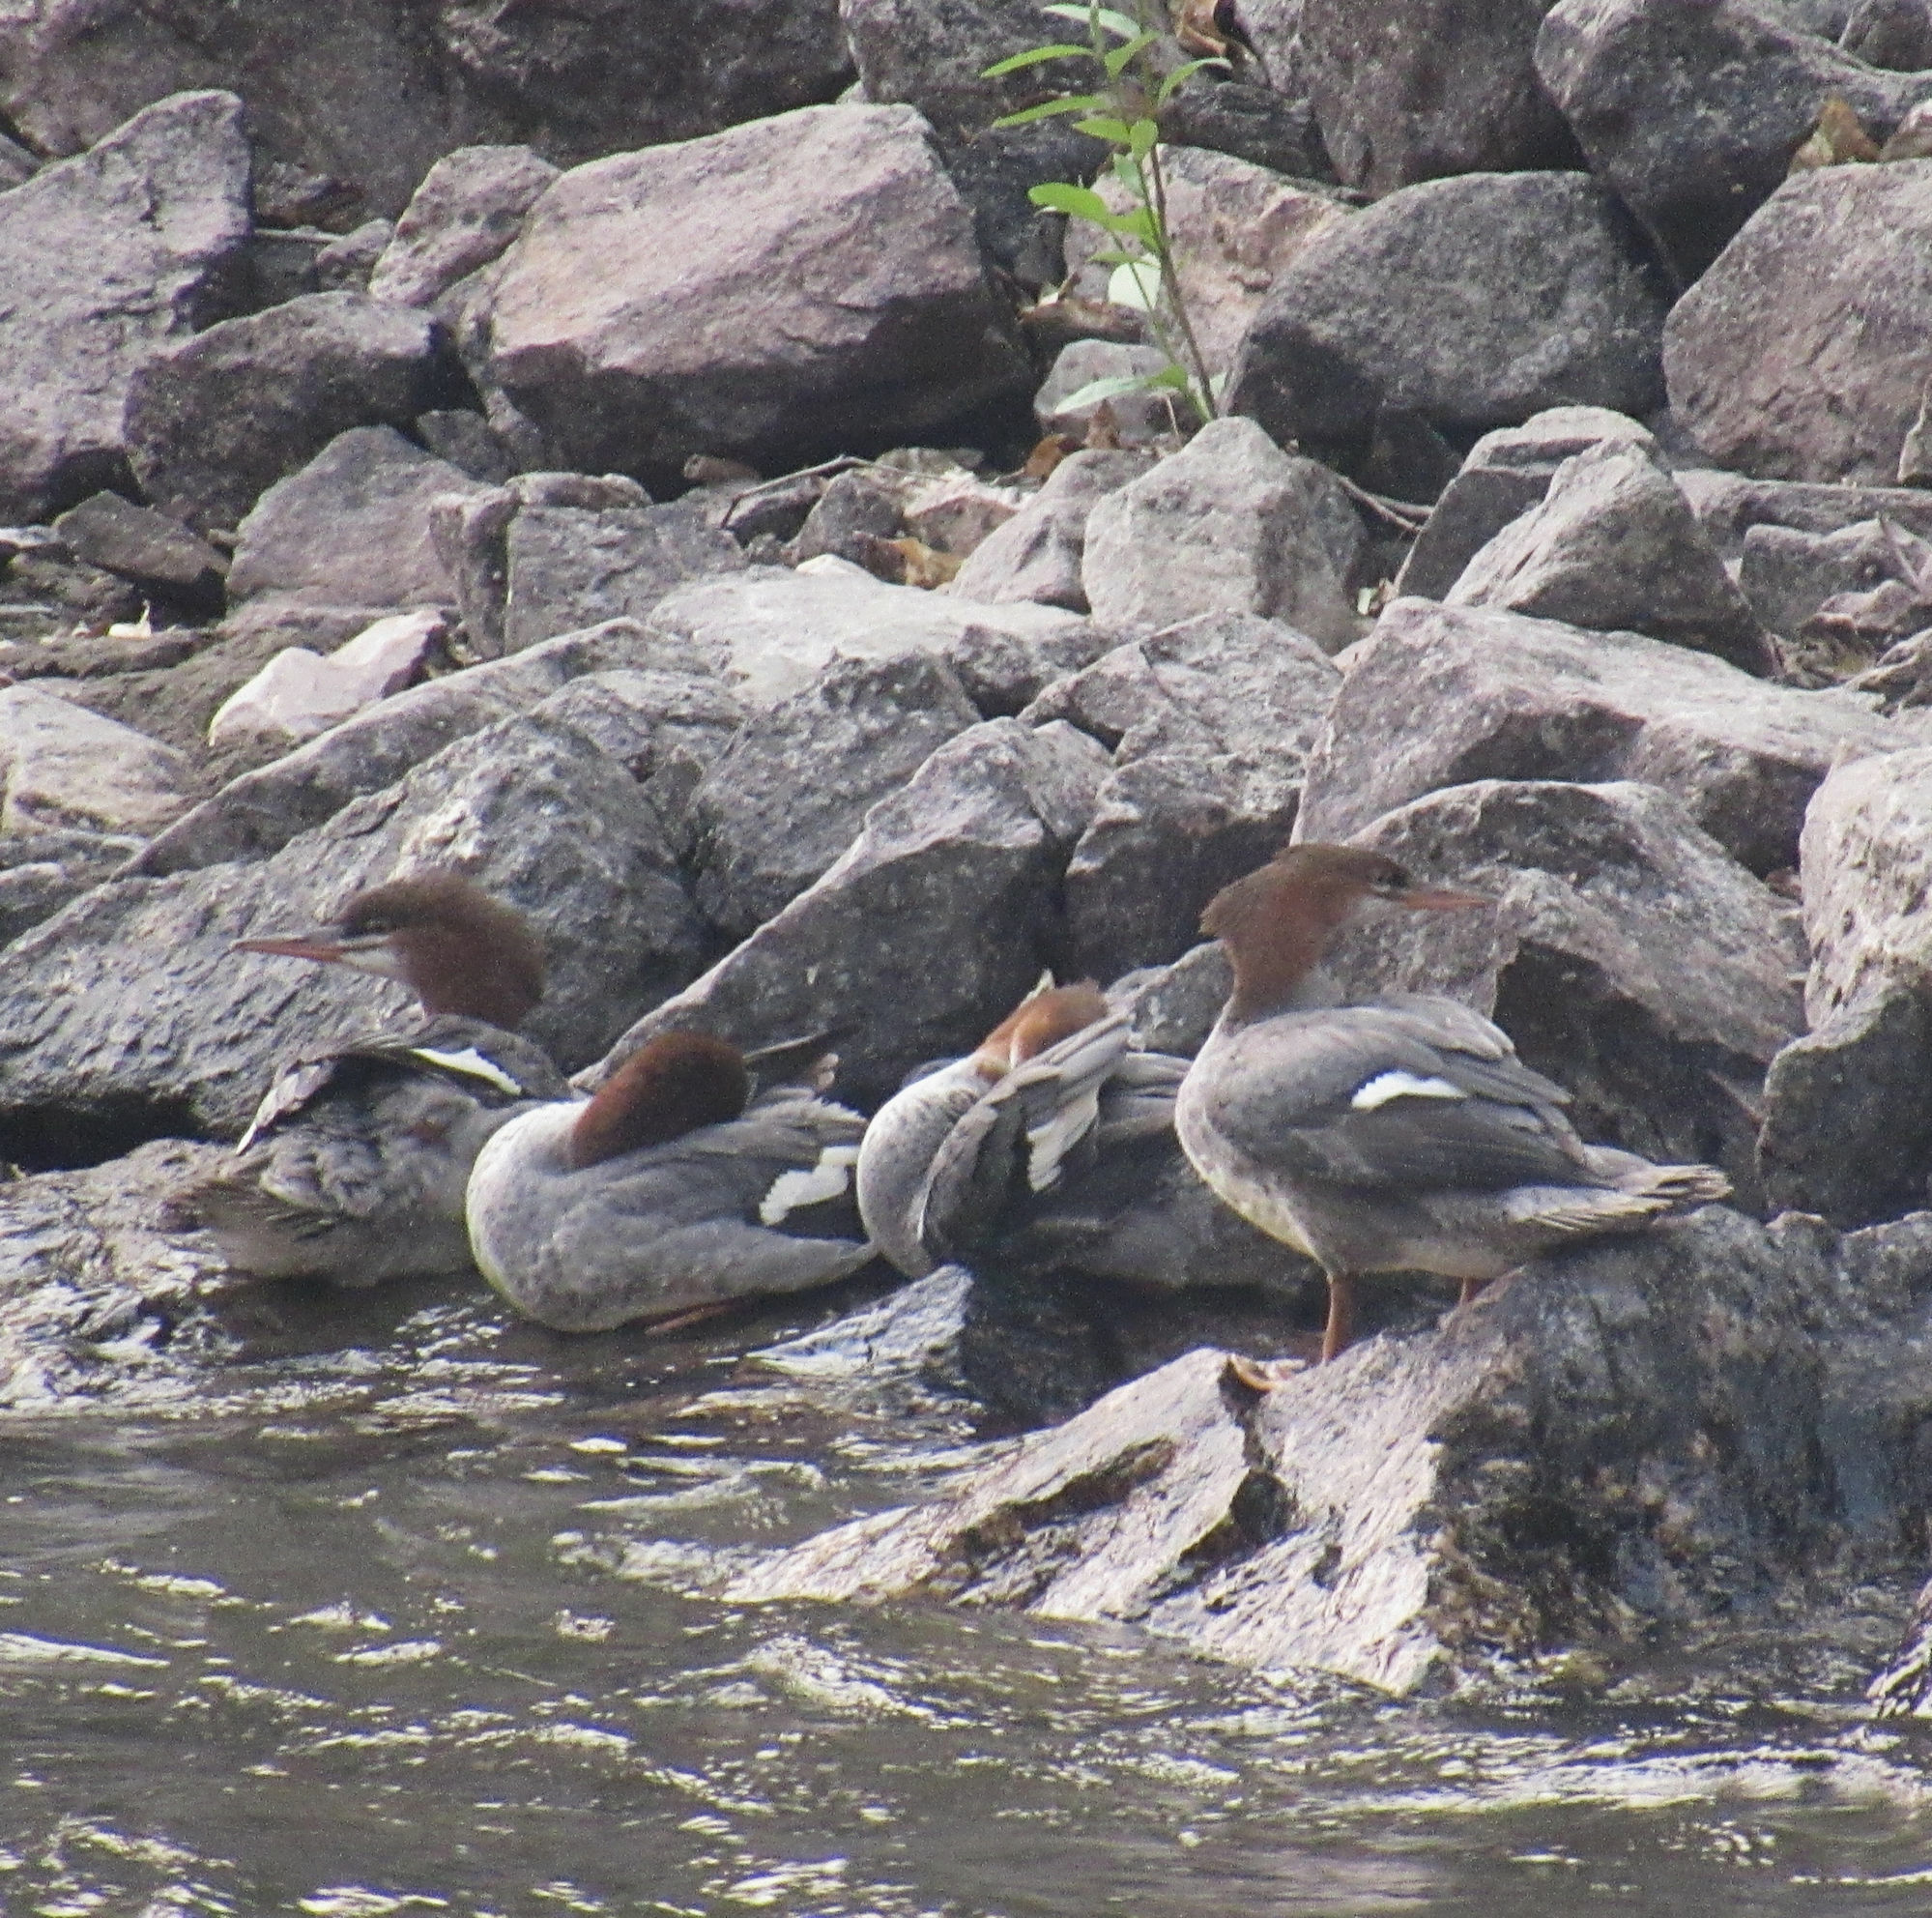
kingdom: Animalia
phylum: Chordata
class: Aves
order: Anseriformes
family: Anatidae
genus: Mergus
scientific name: Mergus merganser
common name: Common merganser
